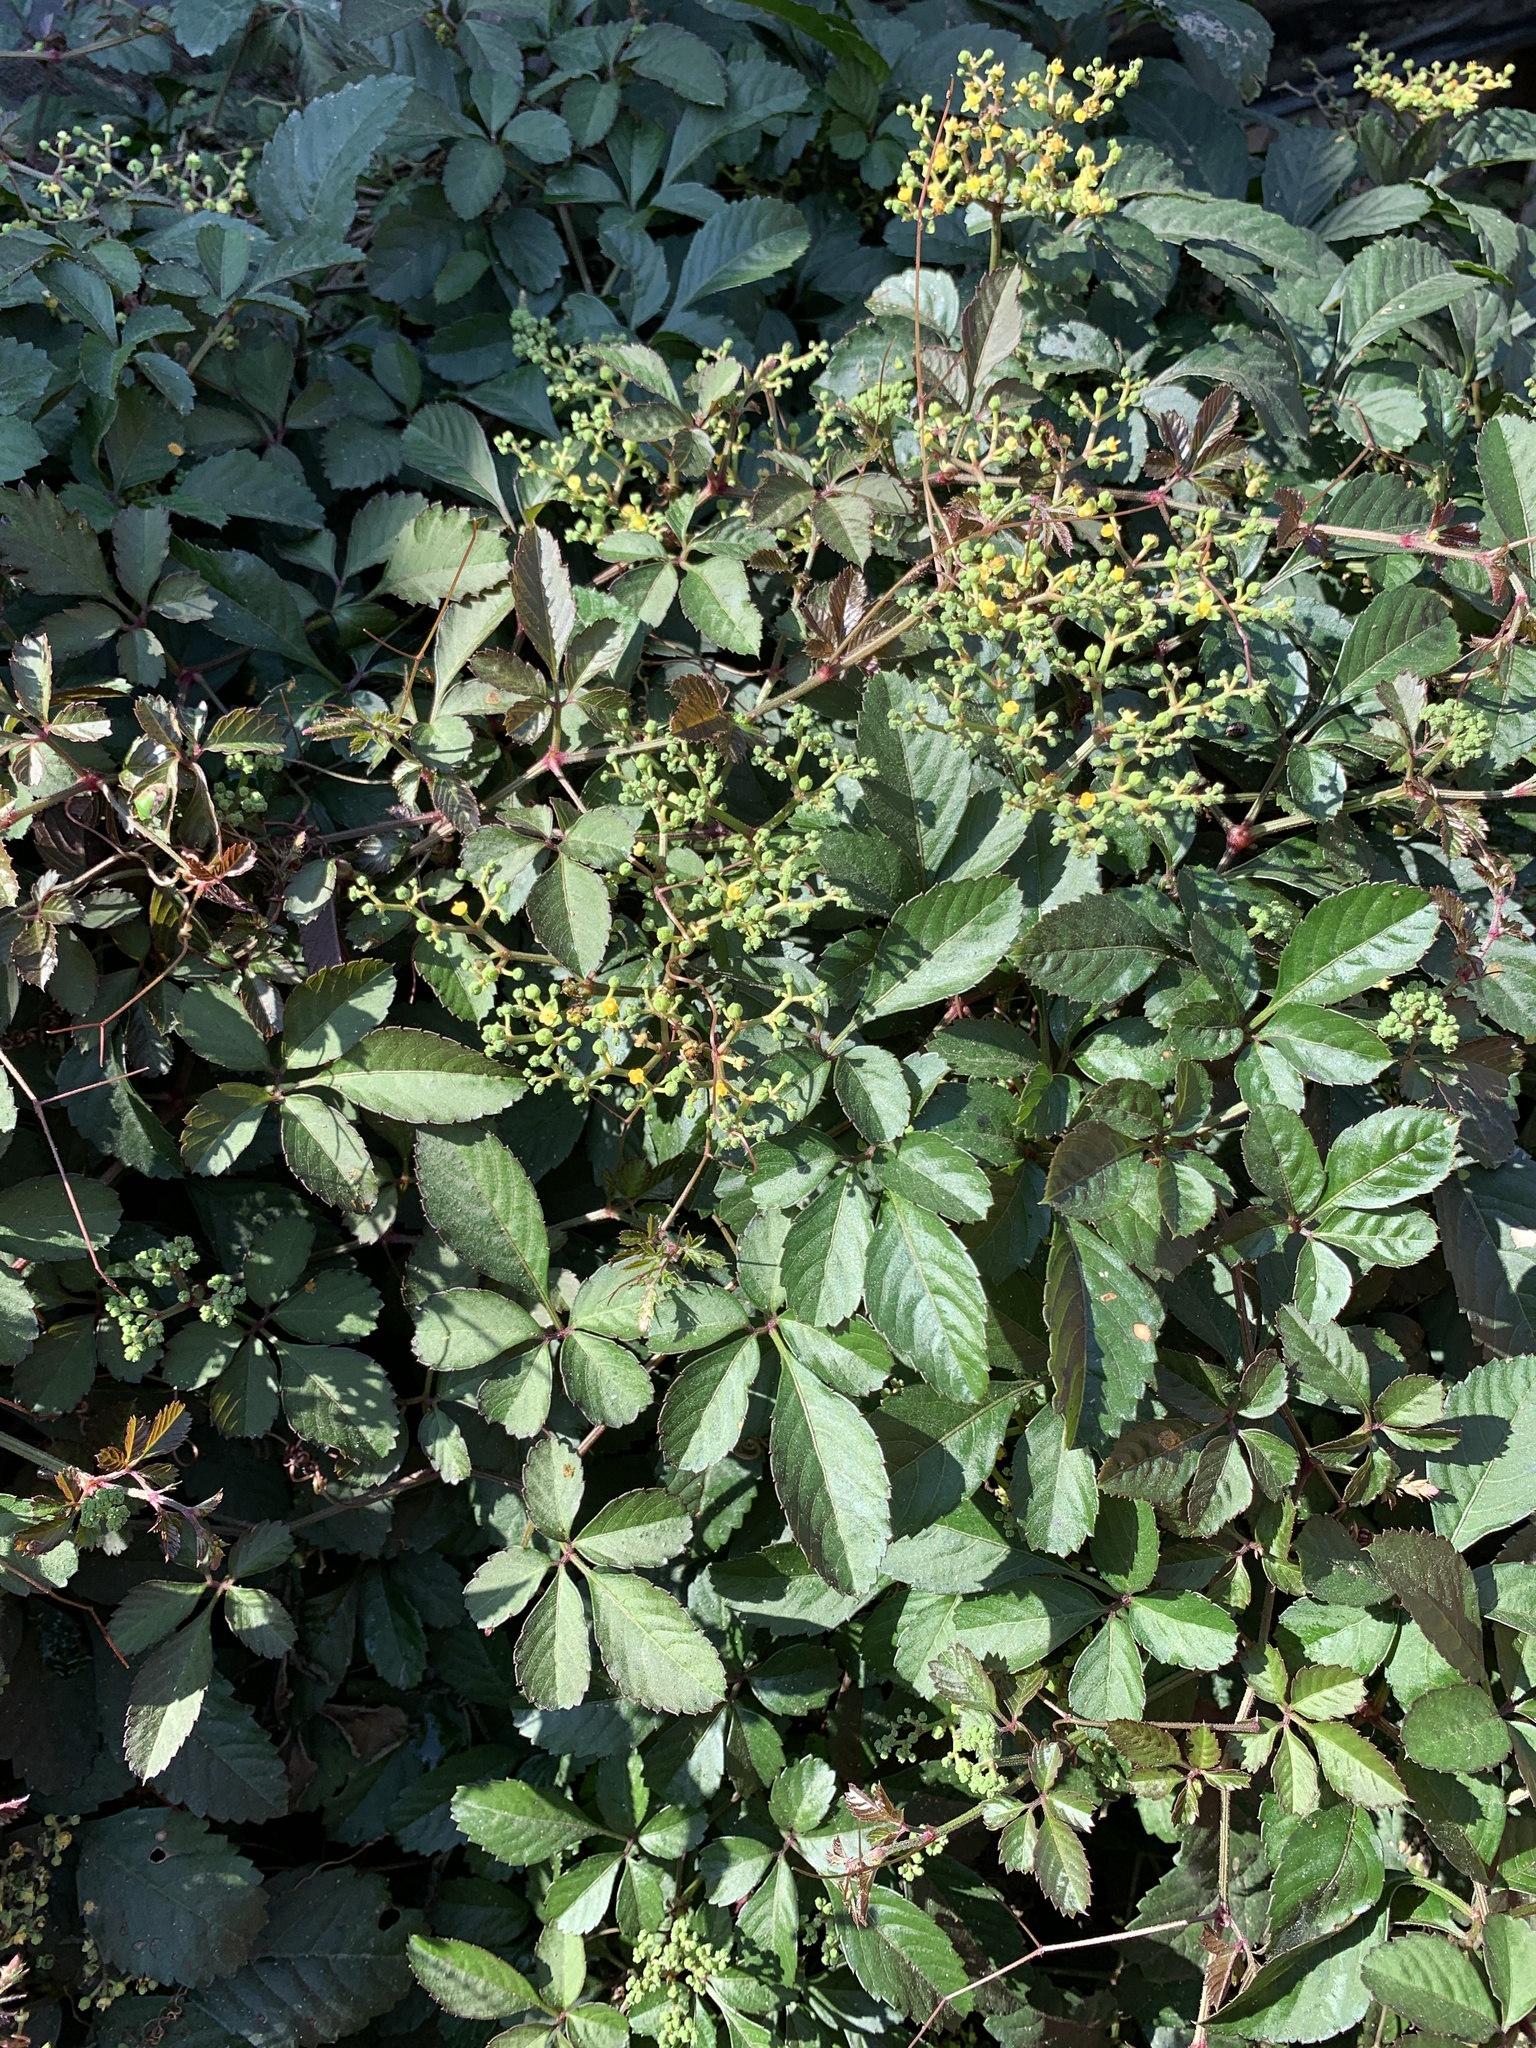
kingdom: Plantae
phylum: Tracheophyta
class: Magnoliopsida
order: Vitales
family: Vitaceae
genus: Causonis
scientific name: Causonis japonica
